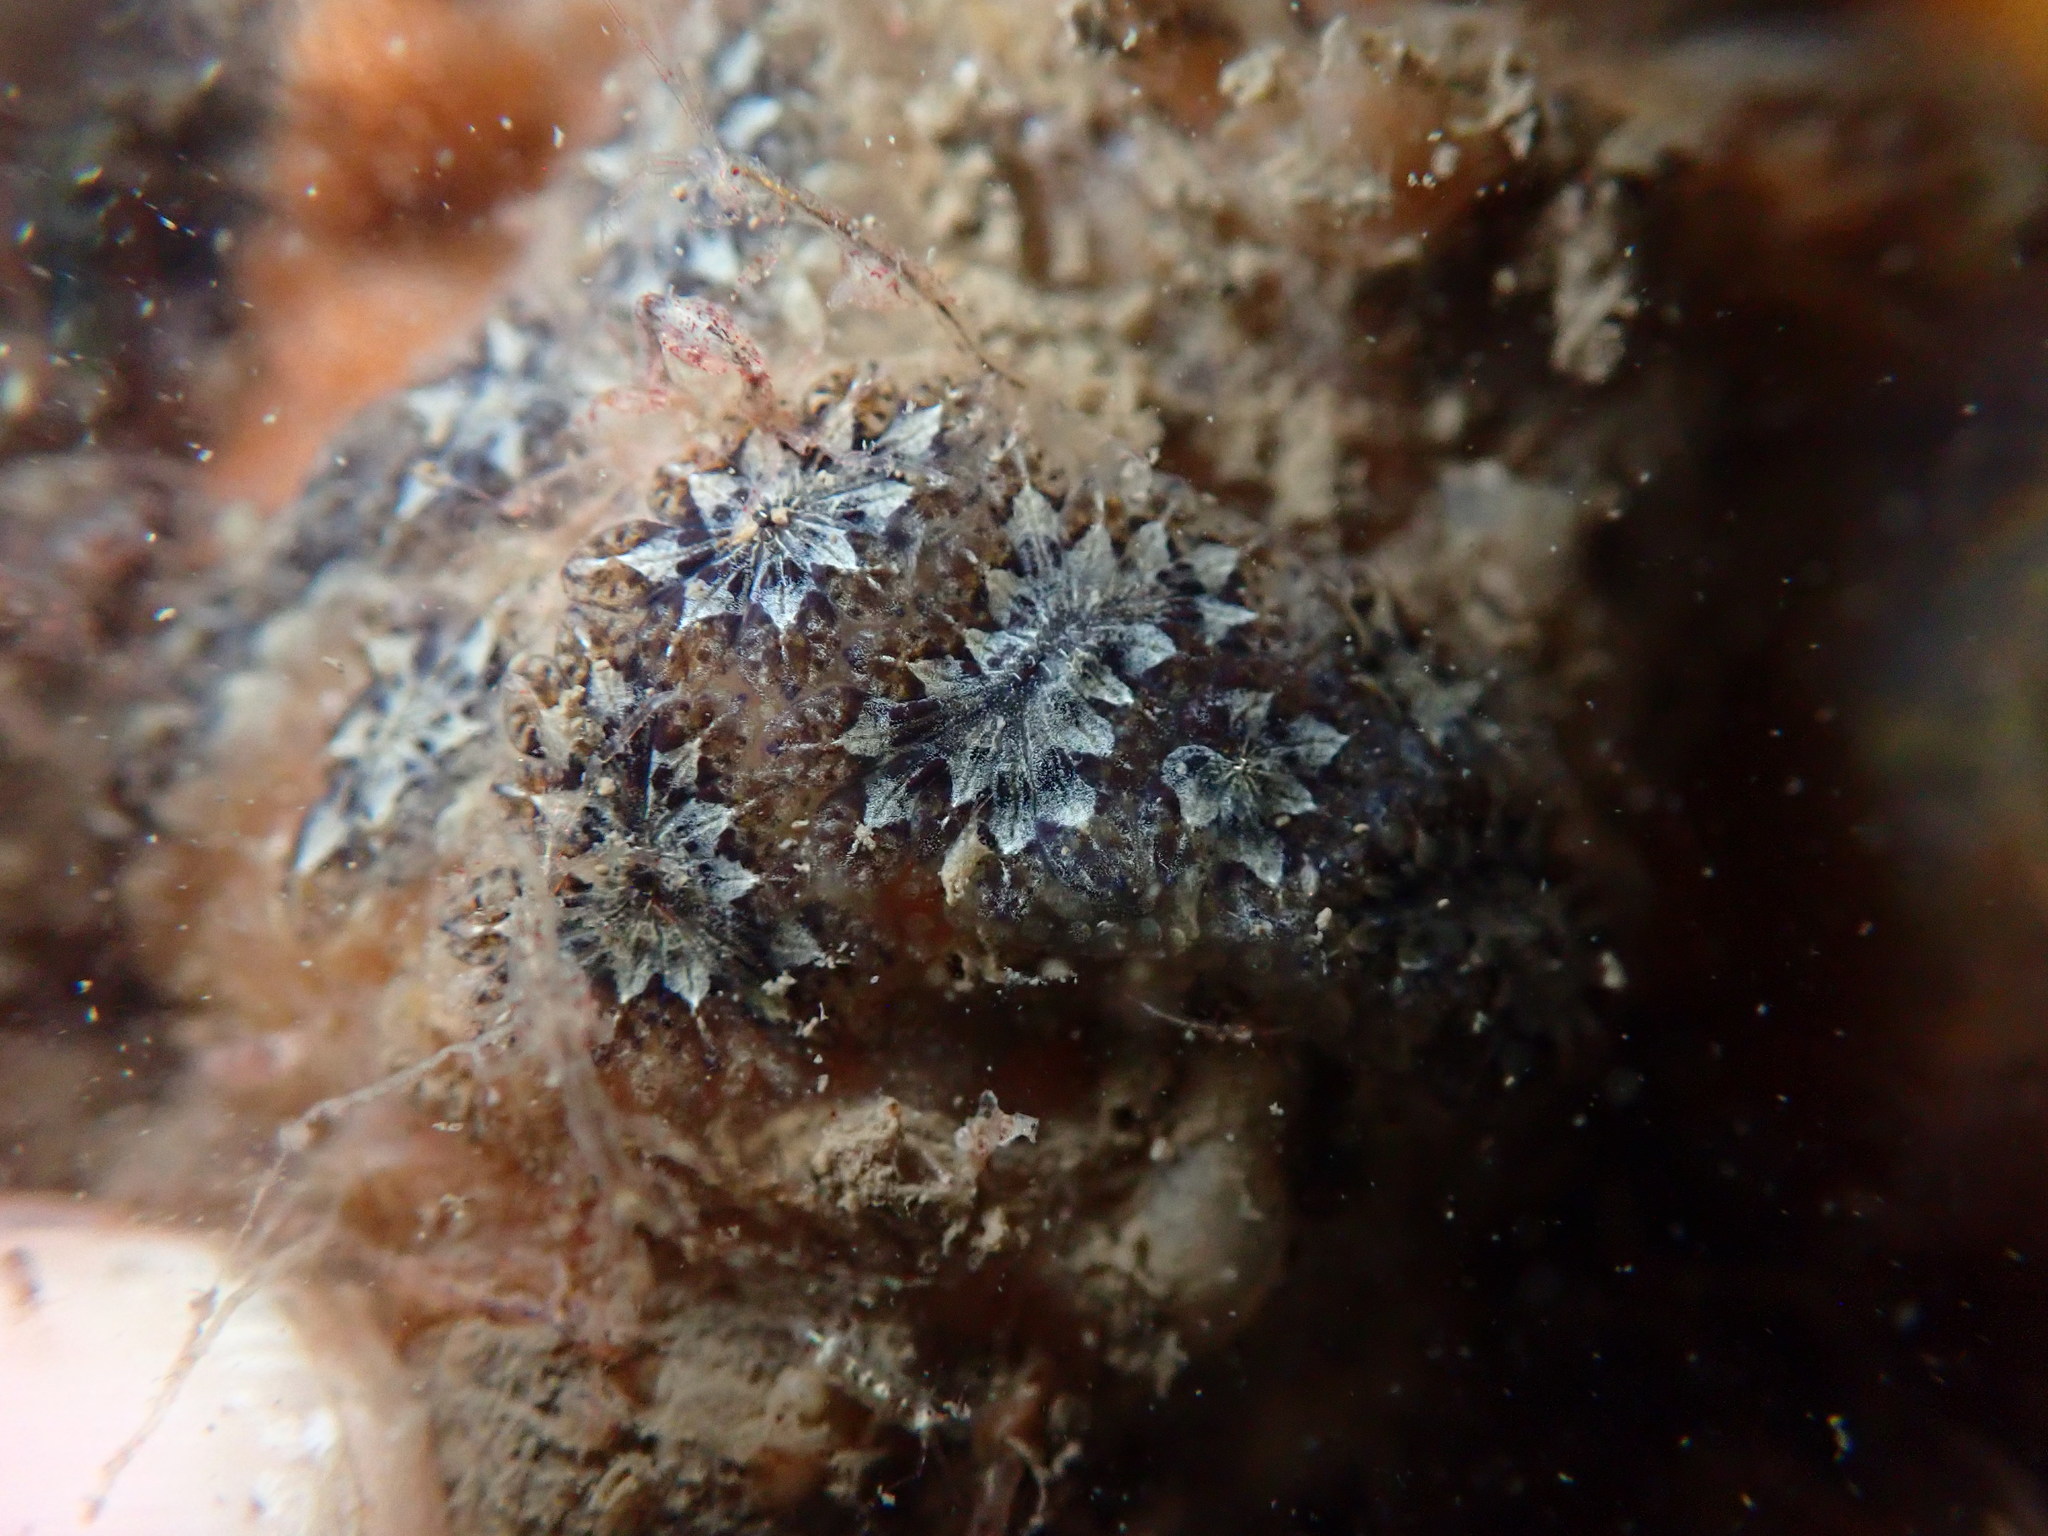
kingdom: Animalia
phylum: Chordata
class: Ascidiacea
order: Stolidobranchia
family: Styelidae
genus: Botryllus
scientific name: Botryllus schlosseri
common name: Golden star tunicate
